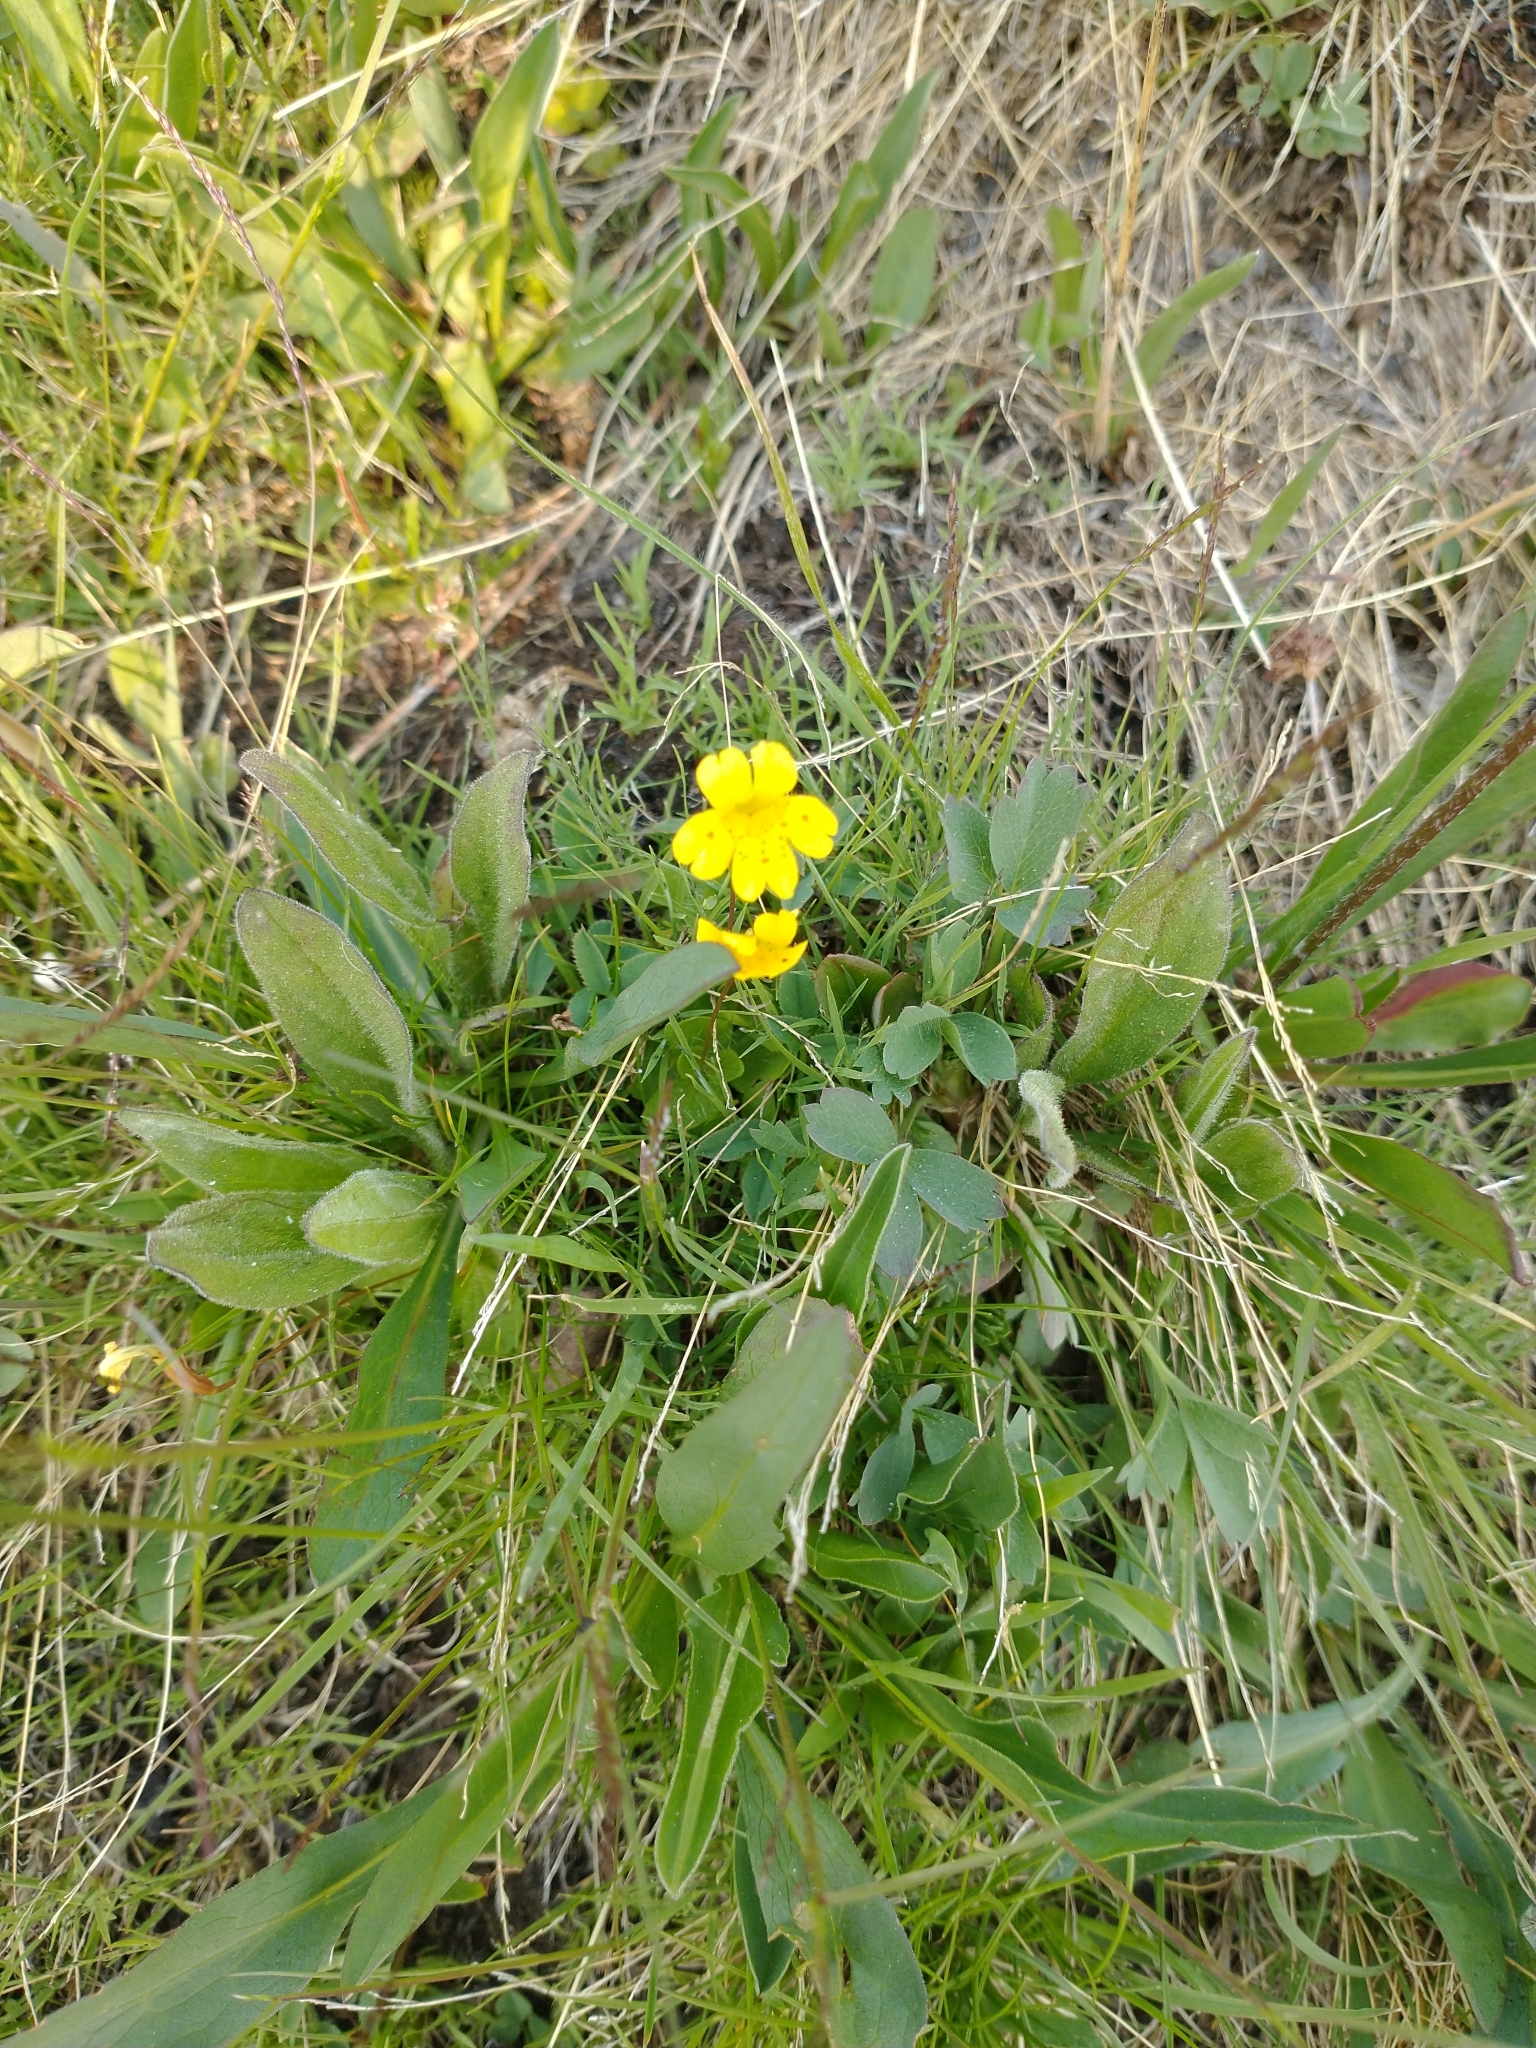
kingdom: Plantae
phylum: Tracheophyta
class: Magnoliopsida
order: Lamiales
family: Phrymaceae
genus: Erythranthe
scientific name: Erythranthe primuloides
